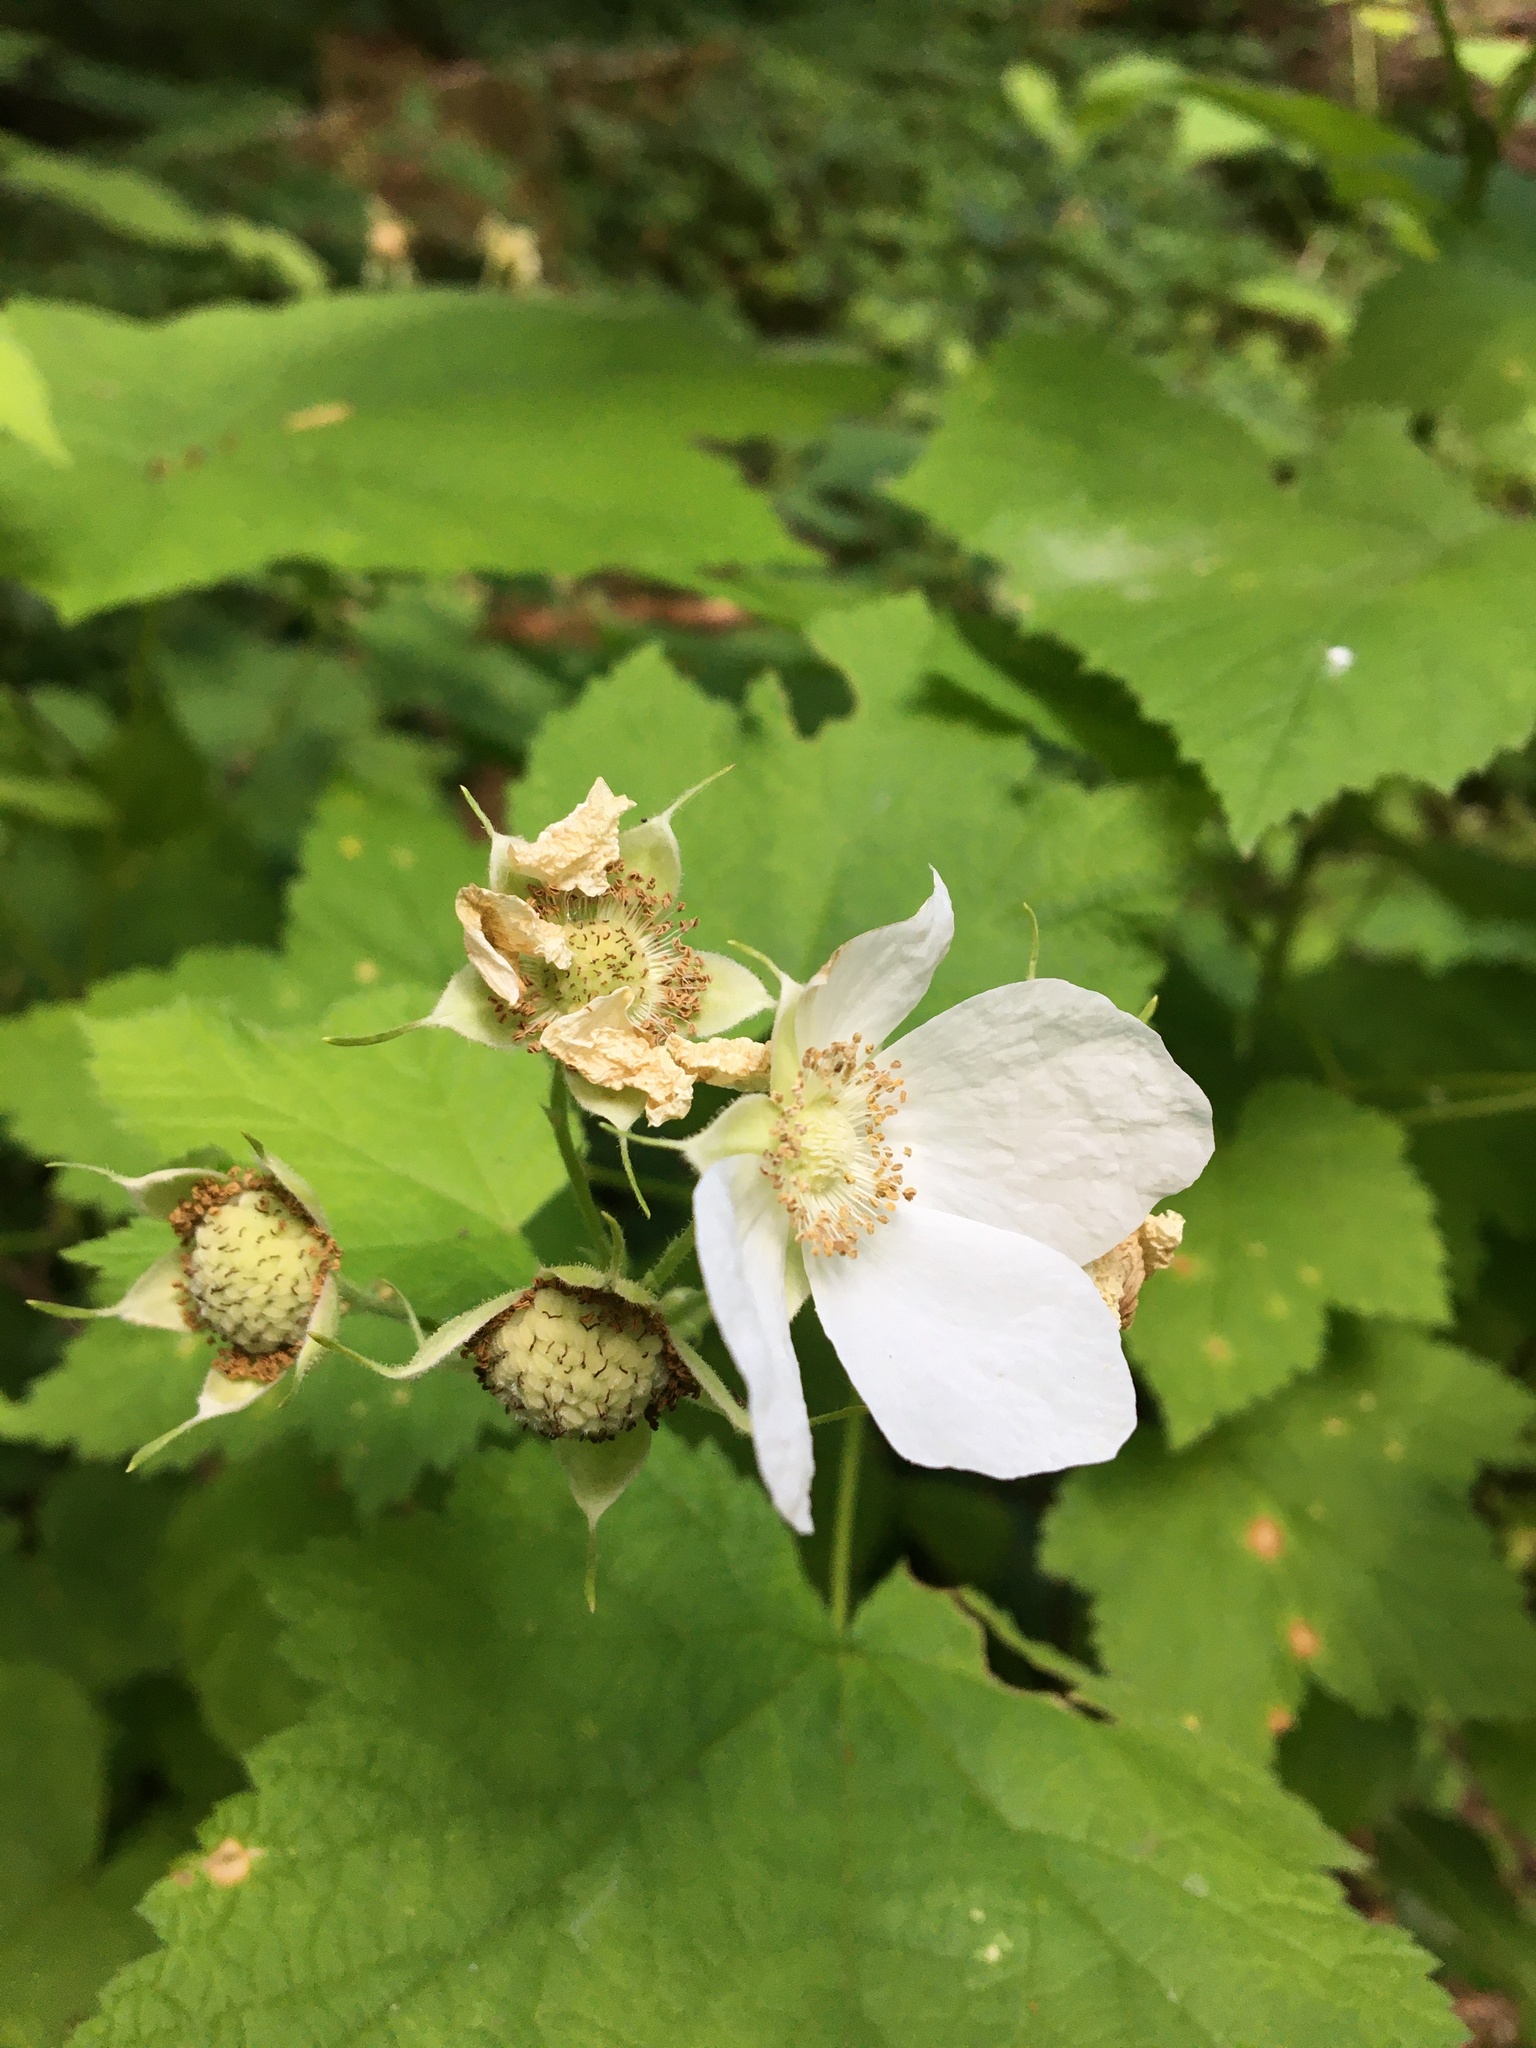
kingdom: Plantae
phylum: Tracheophyta
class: Magnoliopsida
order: Rosales
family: Rosaceae
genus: Rubus
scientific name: Rubus parviflorus
